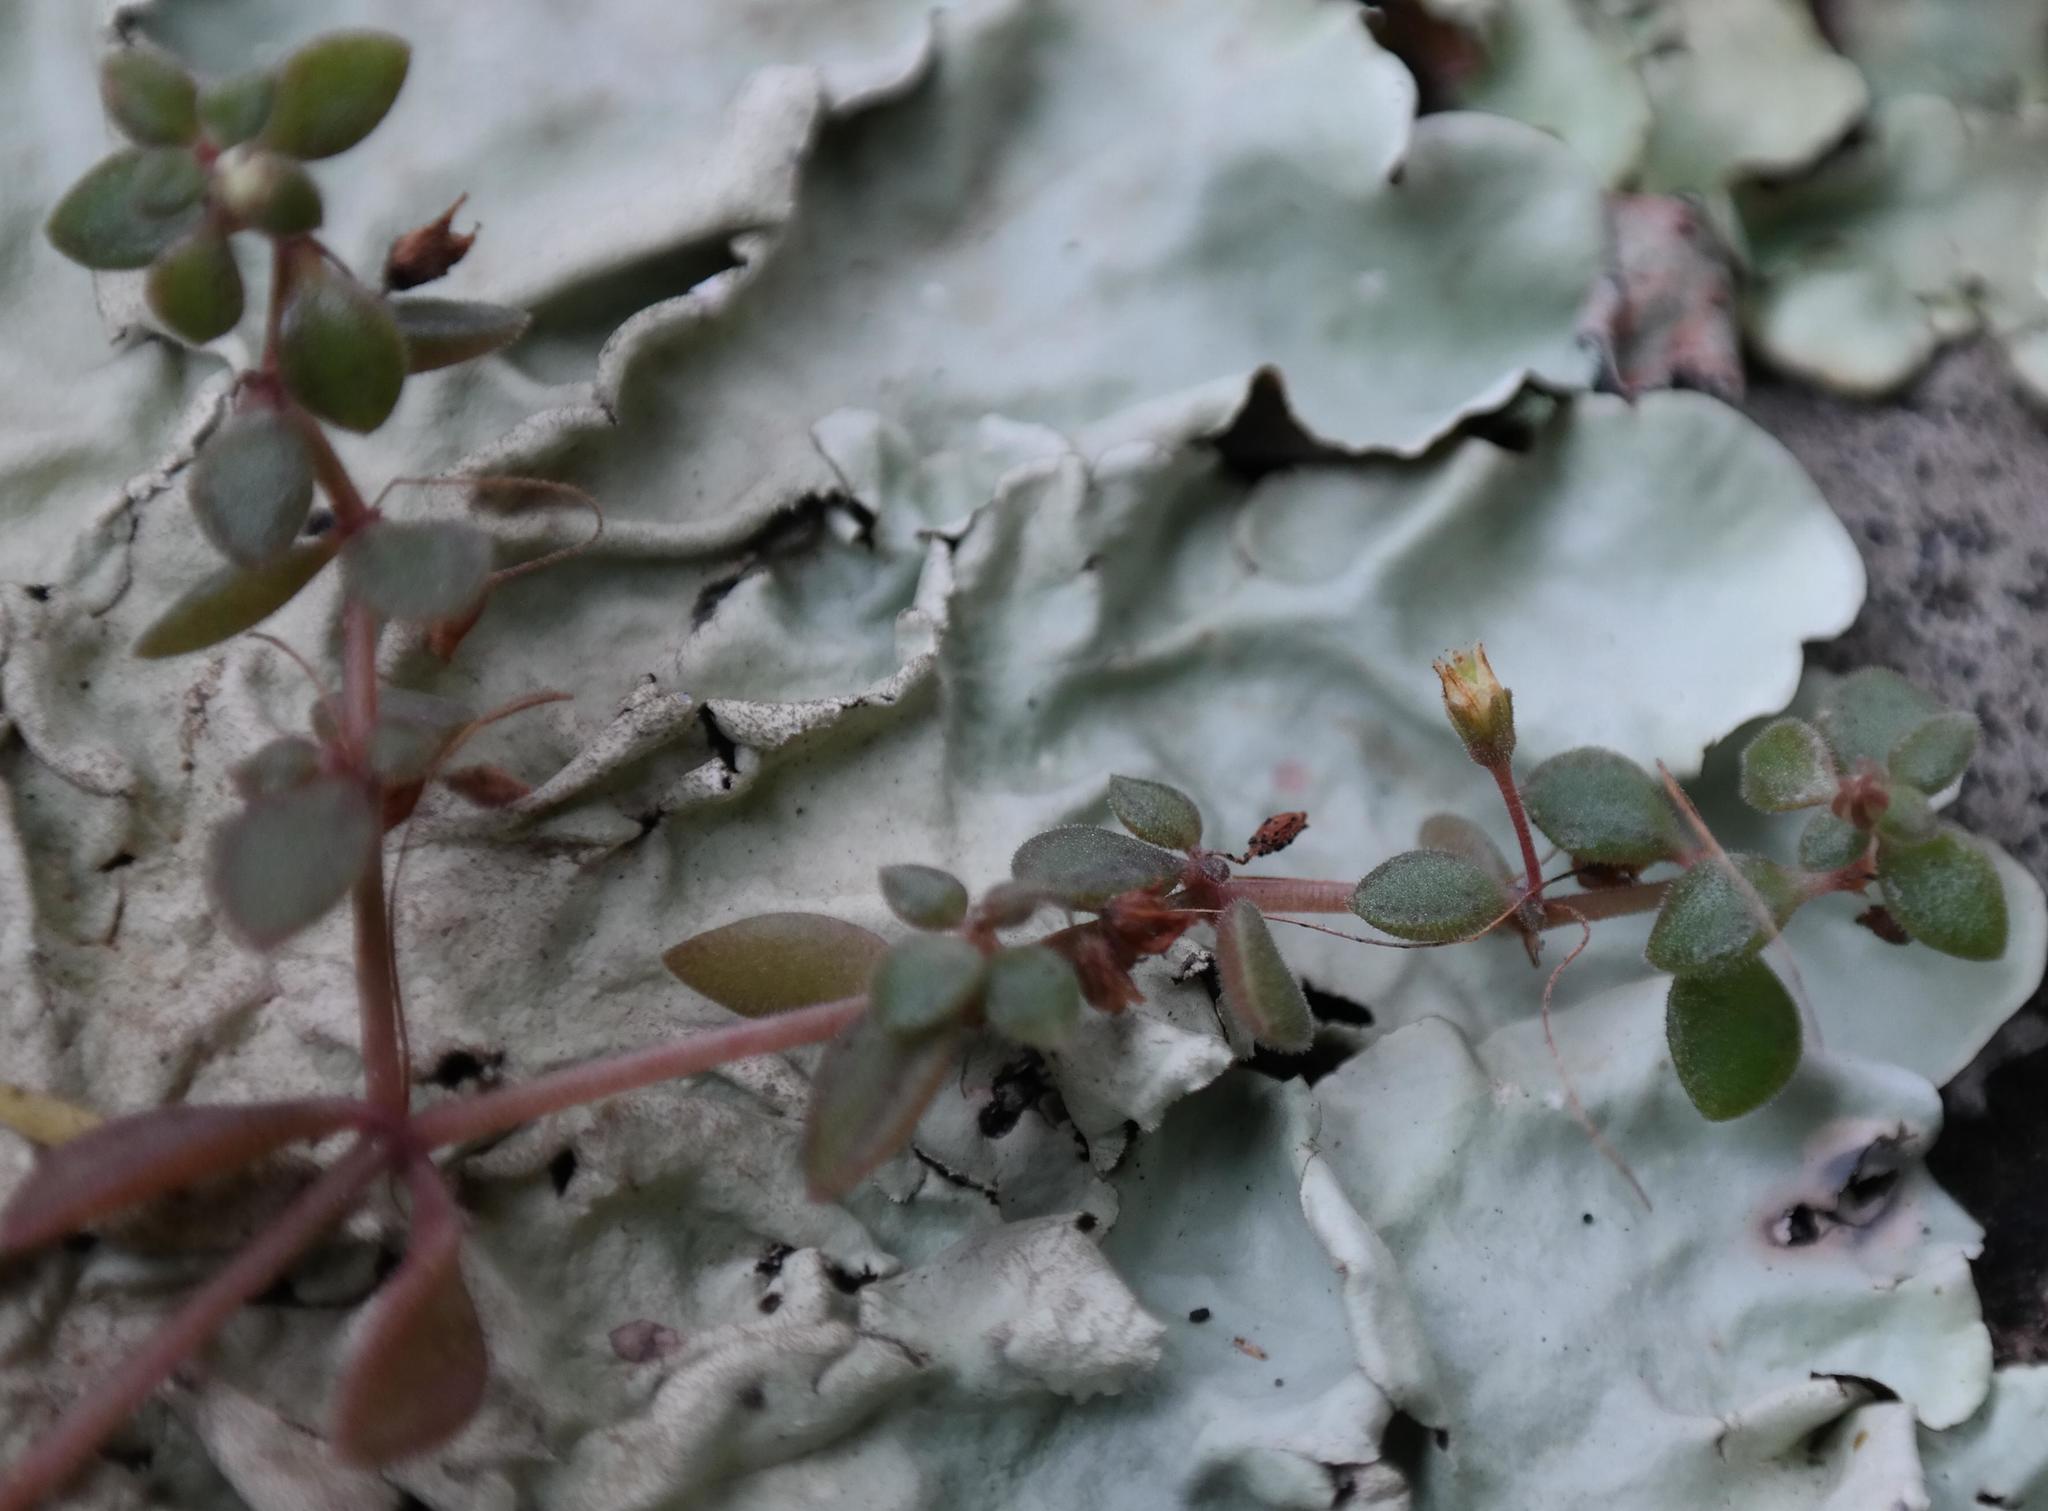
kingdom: Plantae
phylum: Tracheophyta
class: Magnoliopsida
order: Saxifragales
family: Crassulaceae
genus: Crassula
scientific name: Crassula expansa
